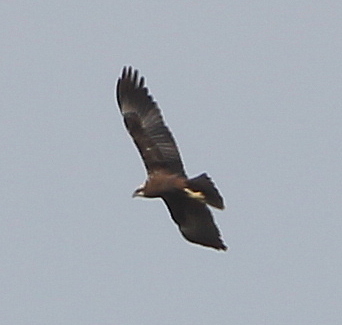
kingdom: Animalia
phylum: Chordata
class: Aves
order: Accipitriformes
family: Accipitridae
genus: Circus
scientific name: Circus aeruginosus
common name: Western marsh harrier
